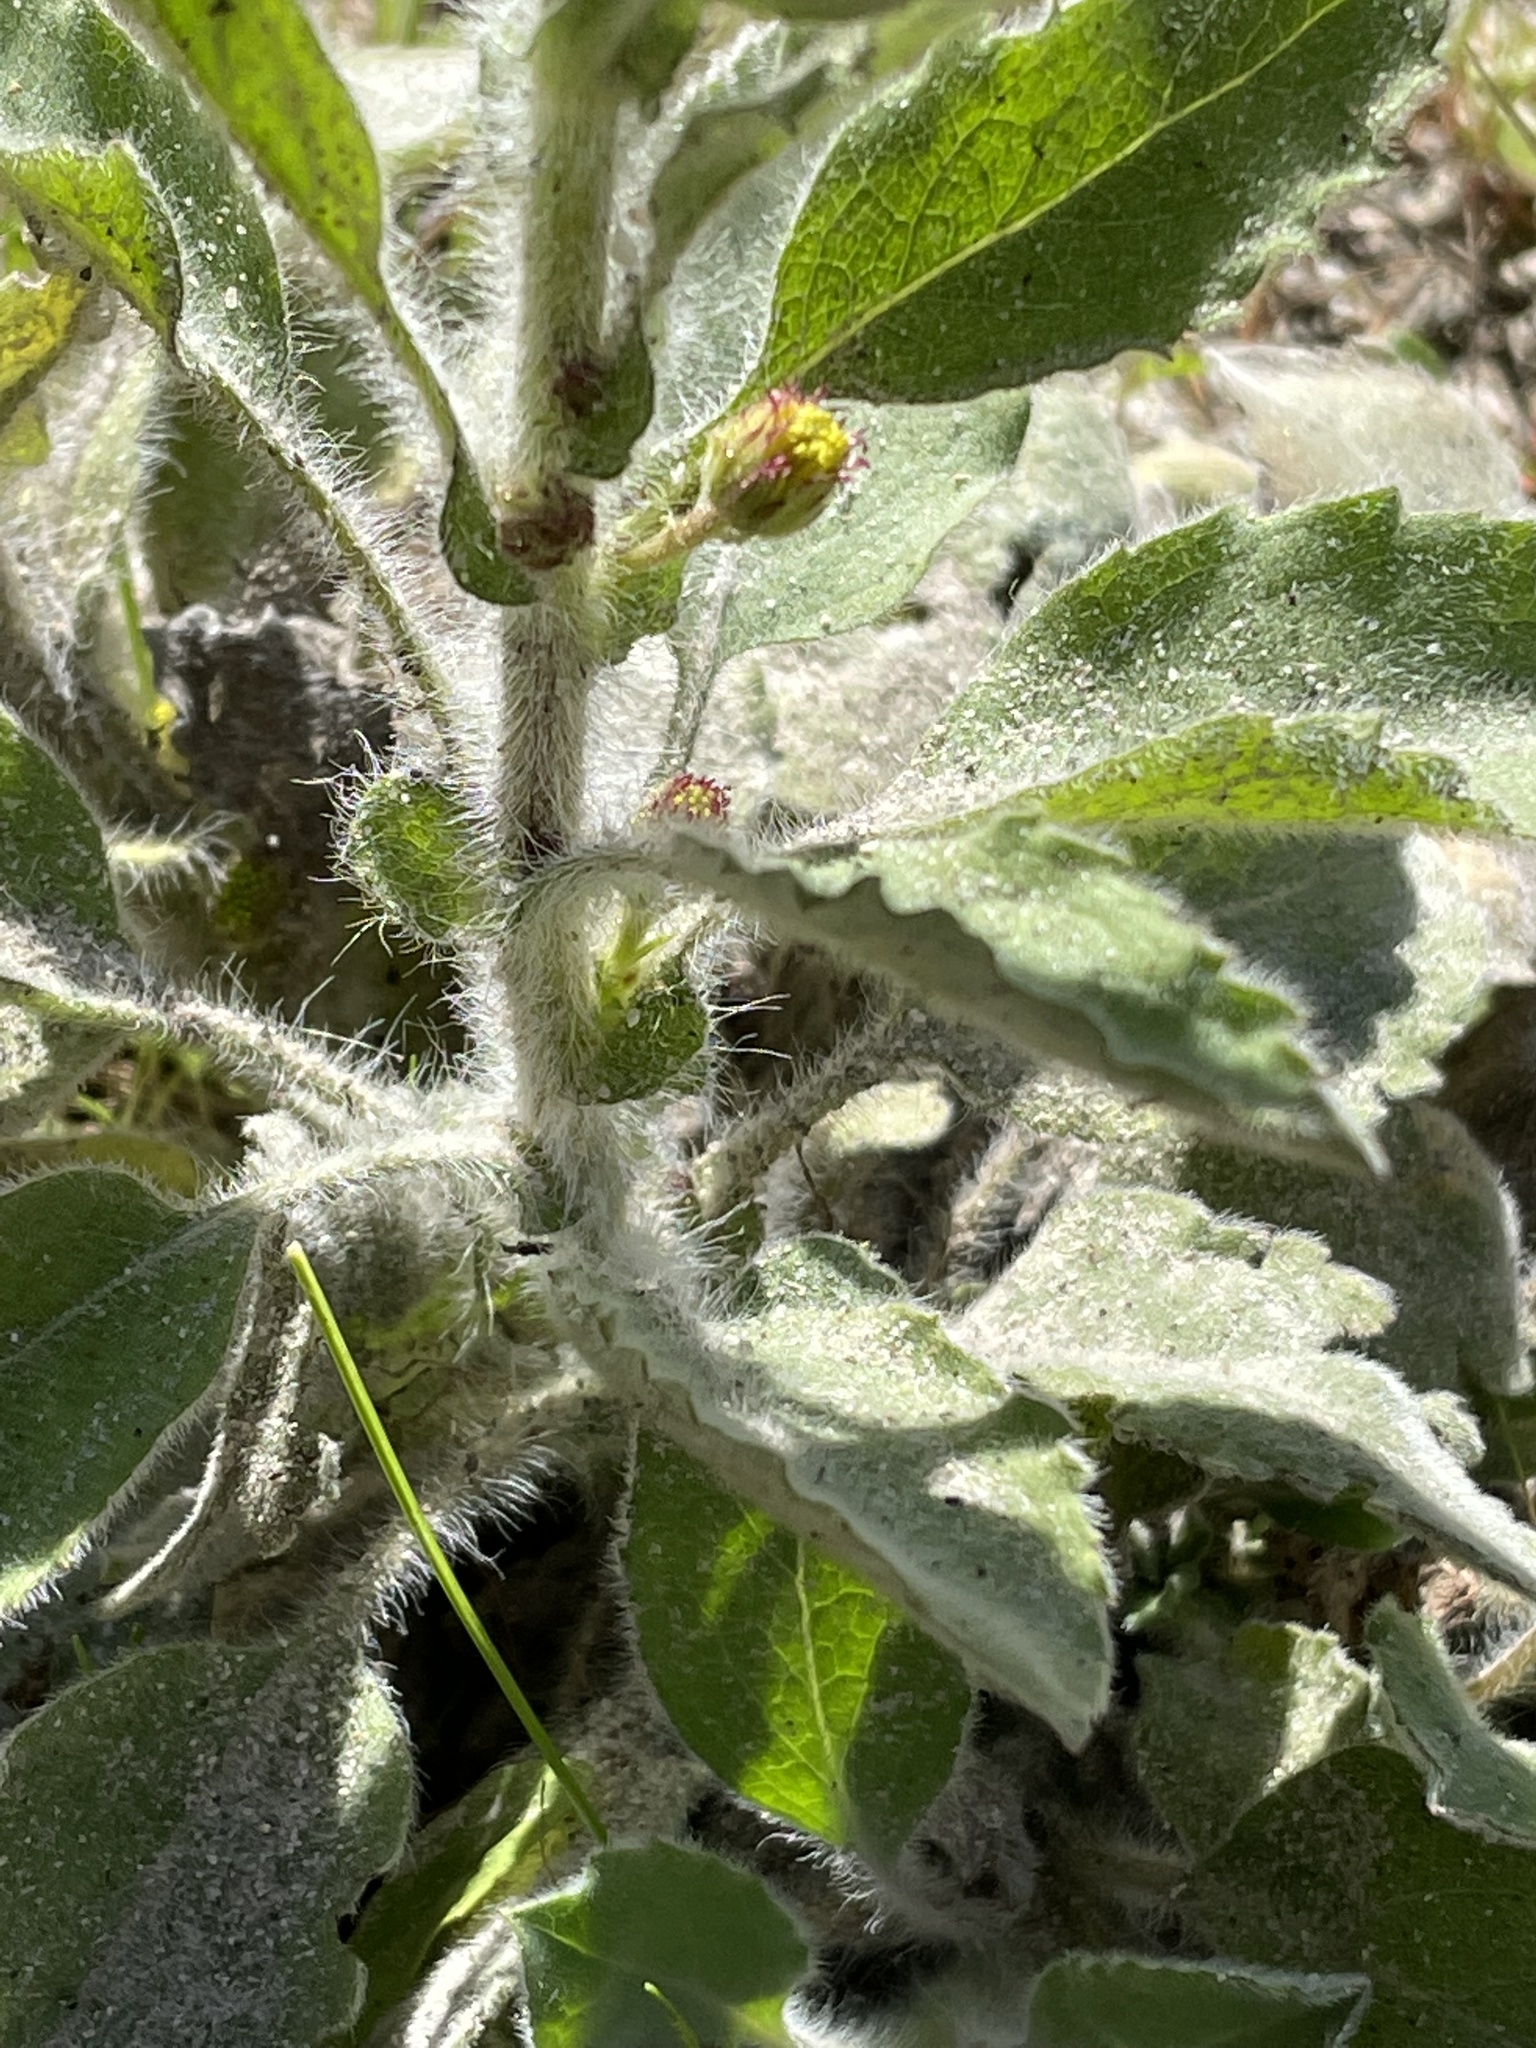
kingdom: Plantae
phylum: Tracheophyta
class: Magnoliopsida
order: Asterales
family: Asteraceae
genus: Heterotheca
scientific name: Heterotheca grandiflora
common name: Telegraphweed
